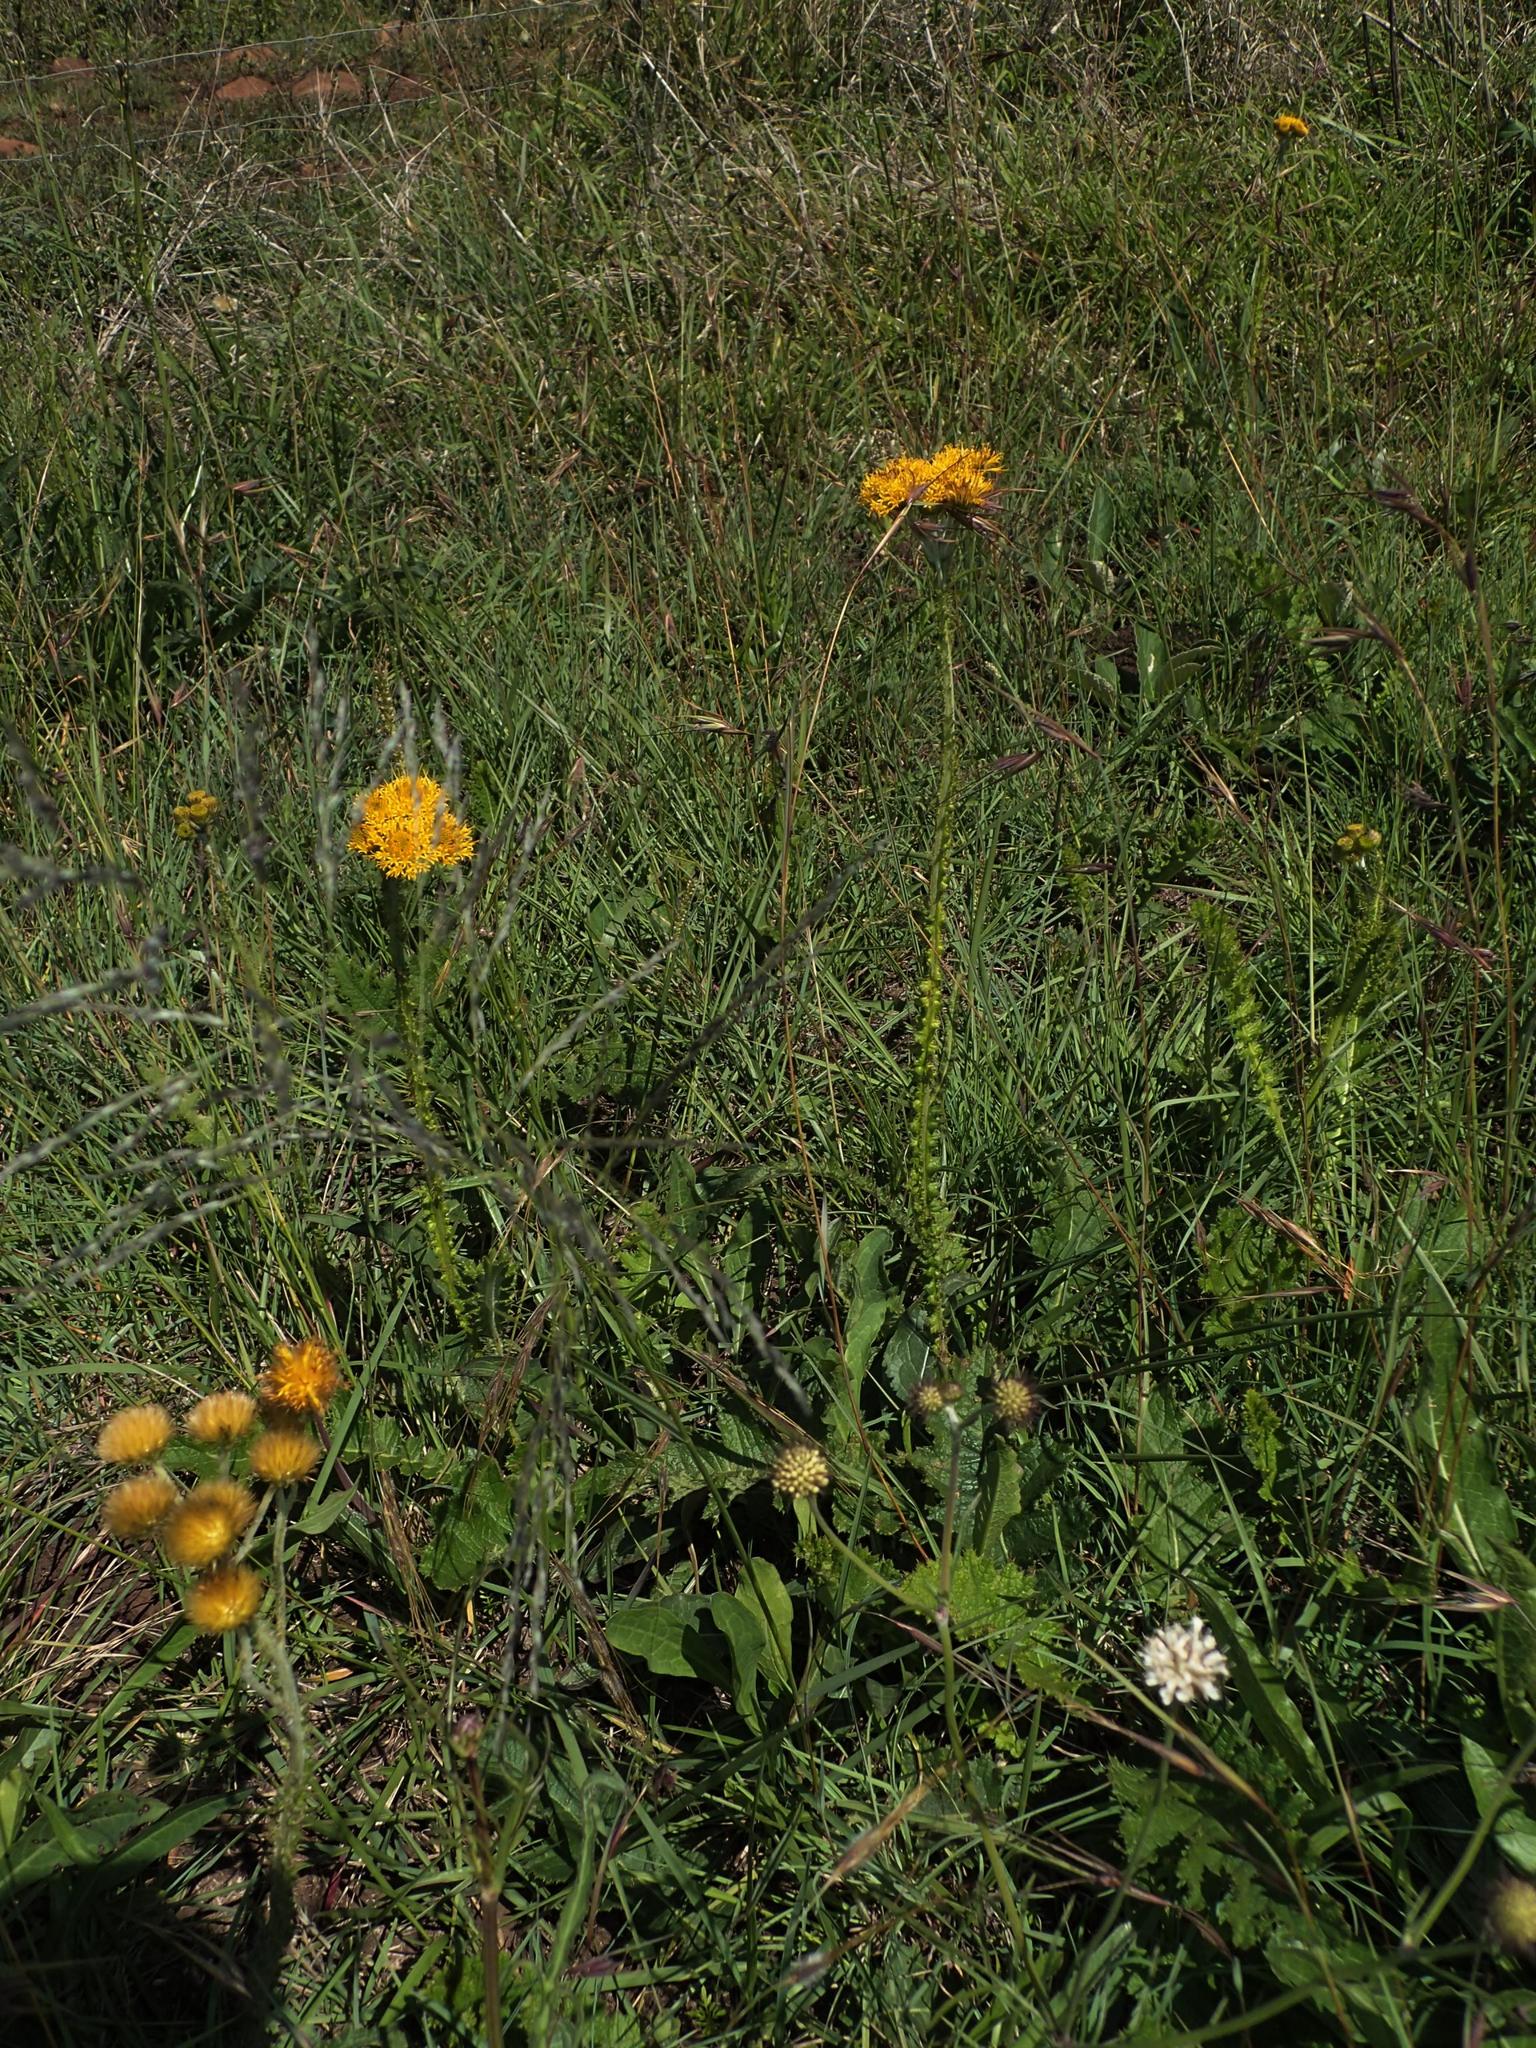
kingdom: Plantae
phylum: Tracheophyta
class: Magnoliopsida
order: Asterales
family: Asteraceae
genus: Berkheya
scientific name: Berkheya umbellata
